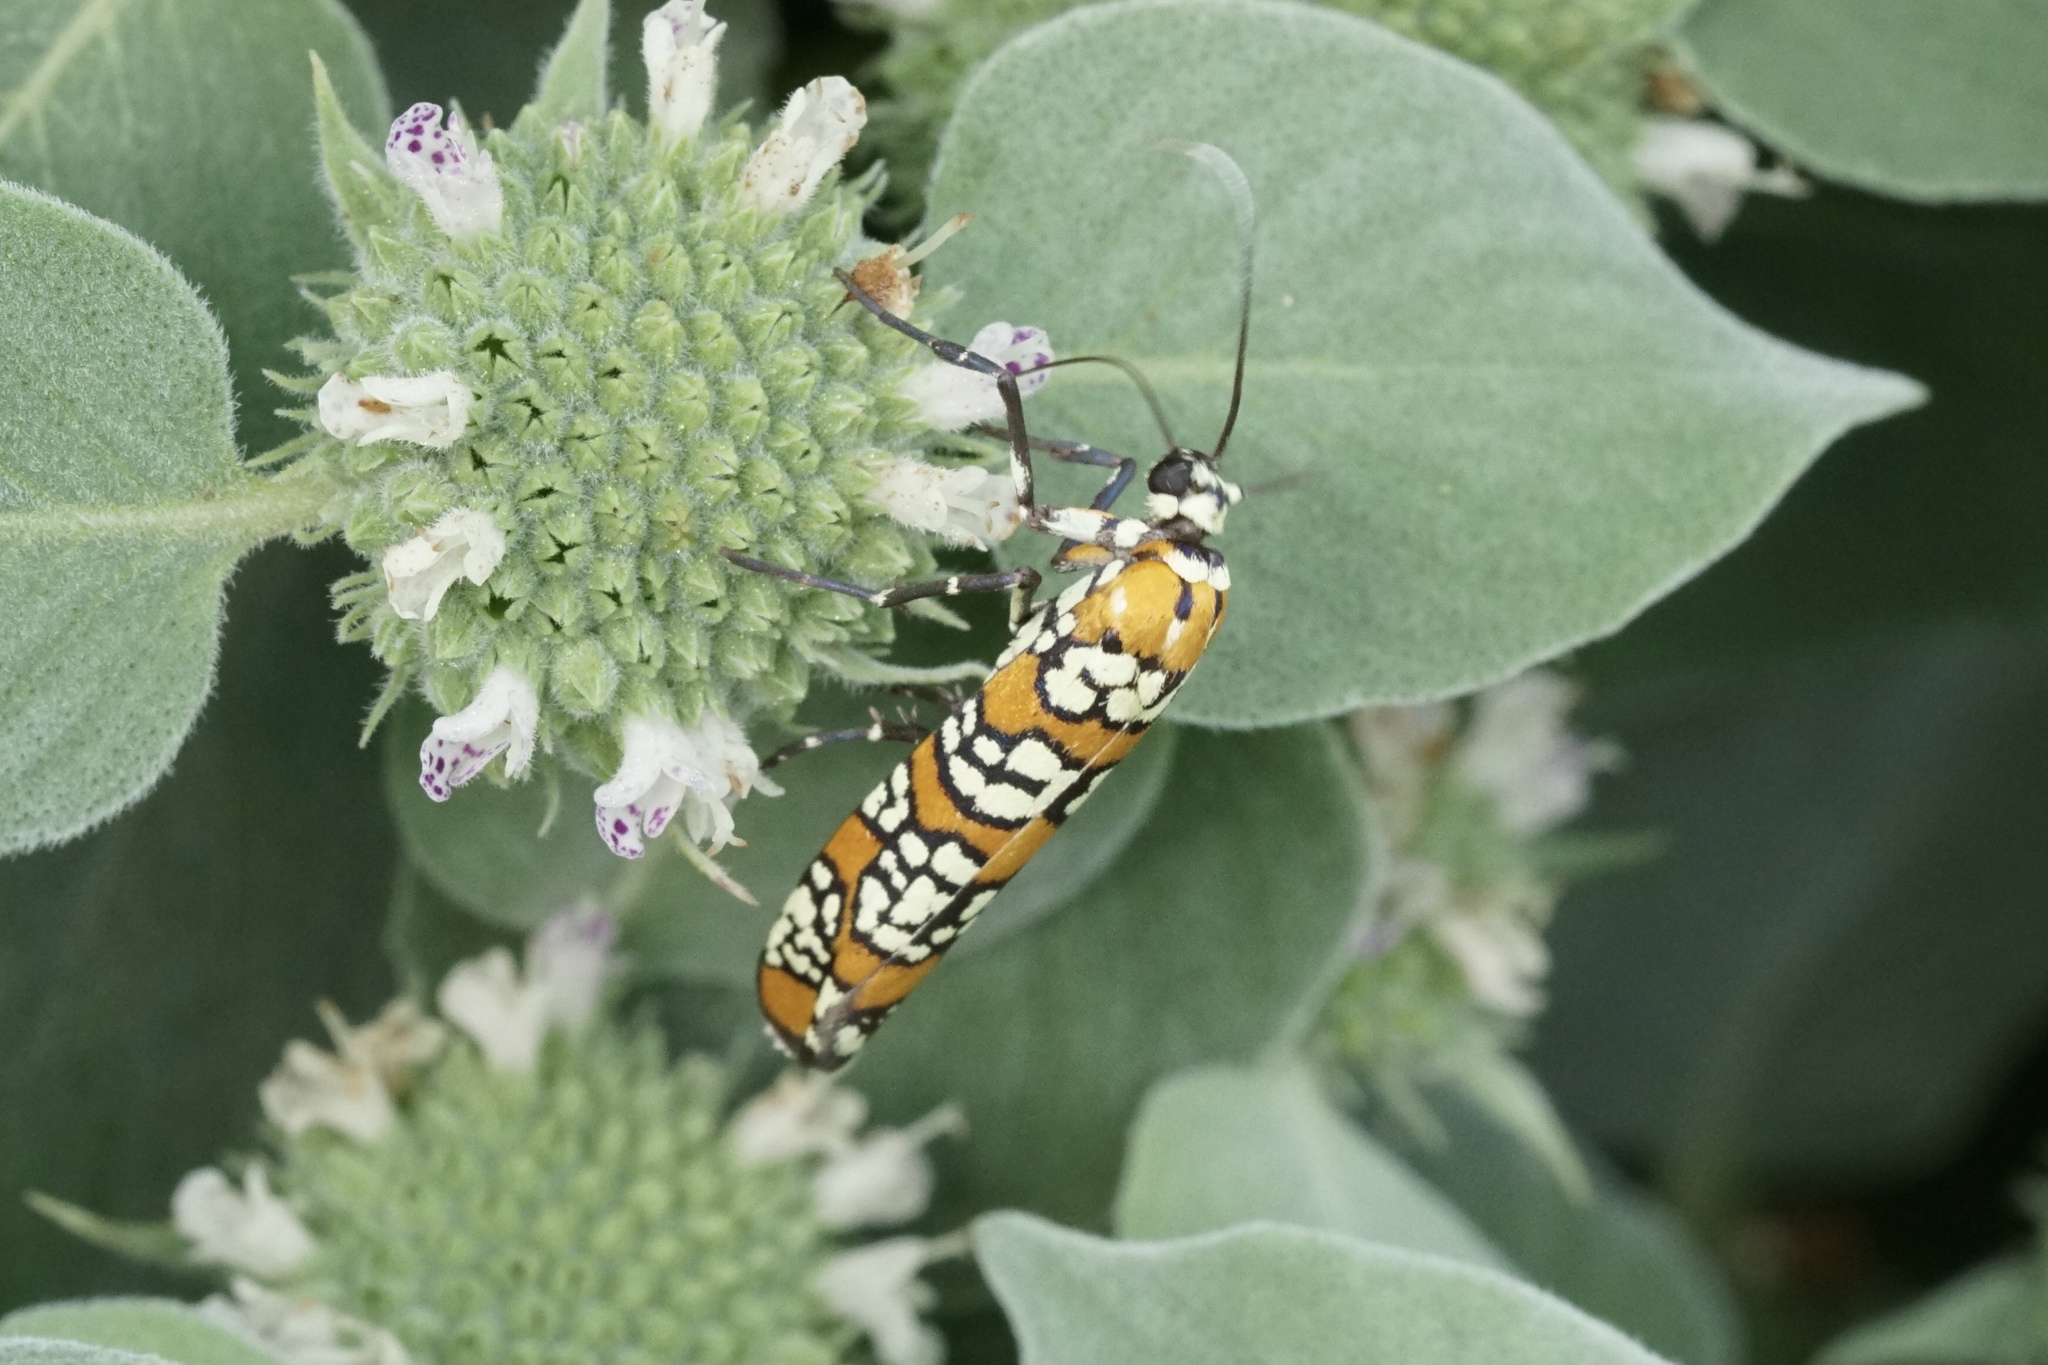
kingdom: Animalia
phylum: Arthropoda
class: Insecta
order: Lepidoptera
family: Attevidae
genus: Atteva
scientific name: Atteva punctella
